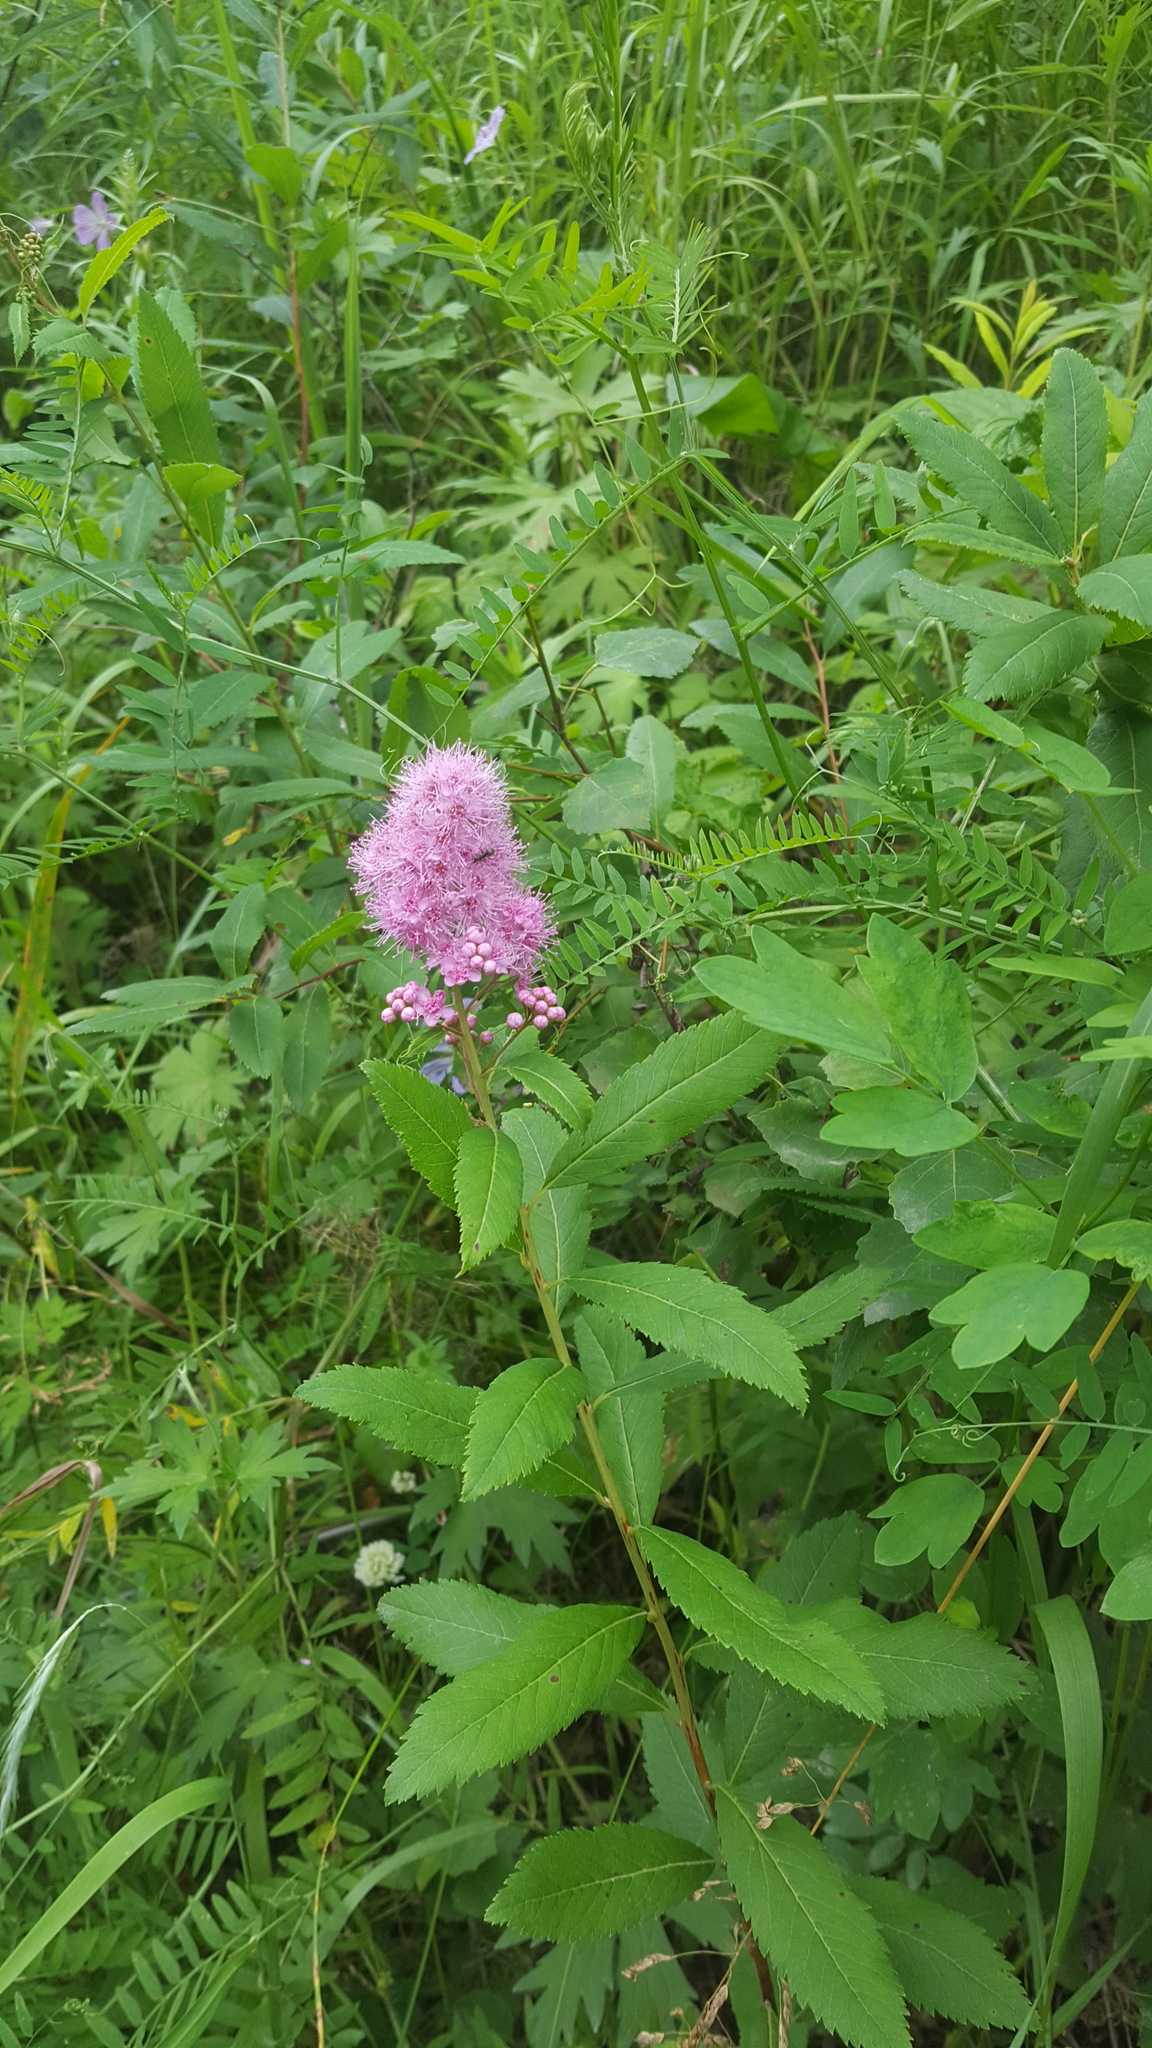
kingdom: Plantae
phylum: Tracheophyta
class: Magnoliopsida
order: Rosales
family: Rosaceae
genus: Spiraea
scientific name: Spiraea salicifolia
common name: Bridewort
